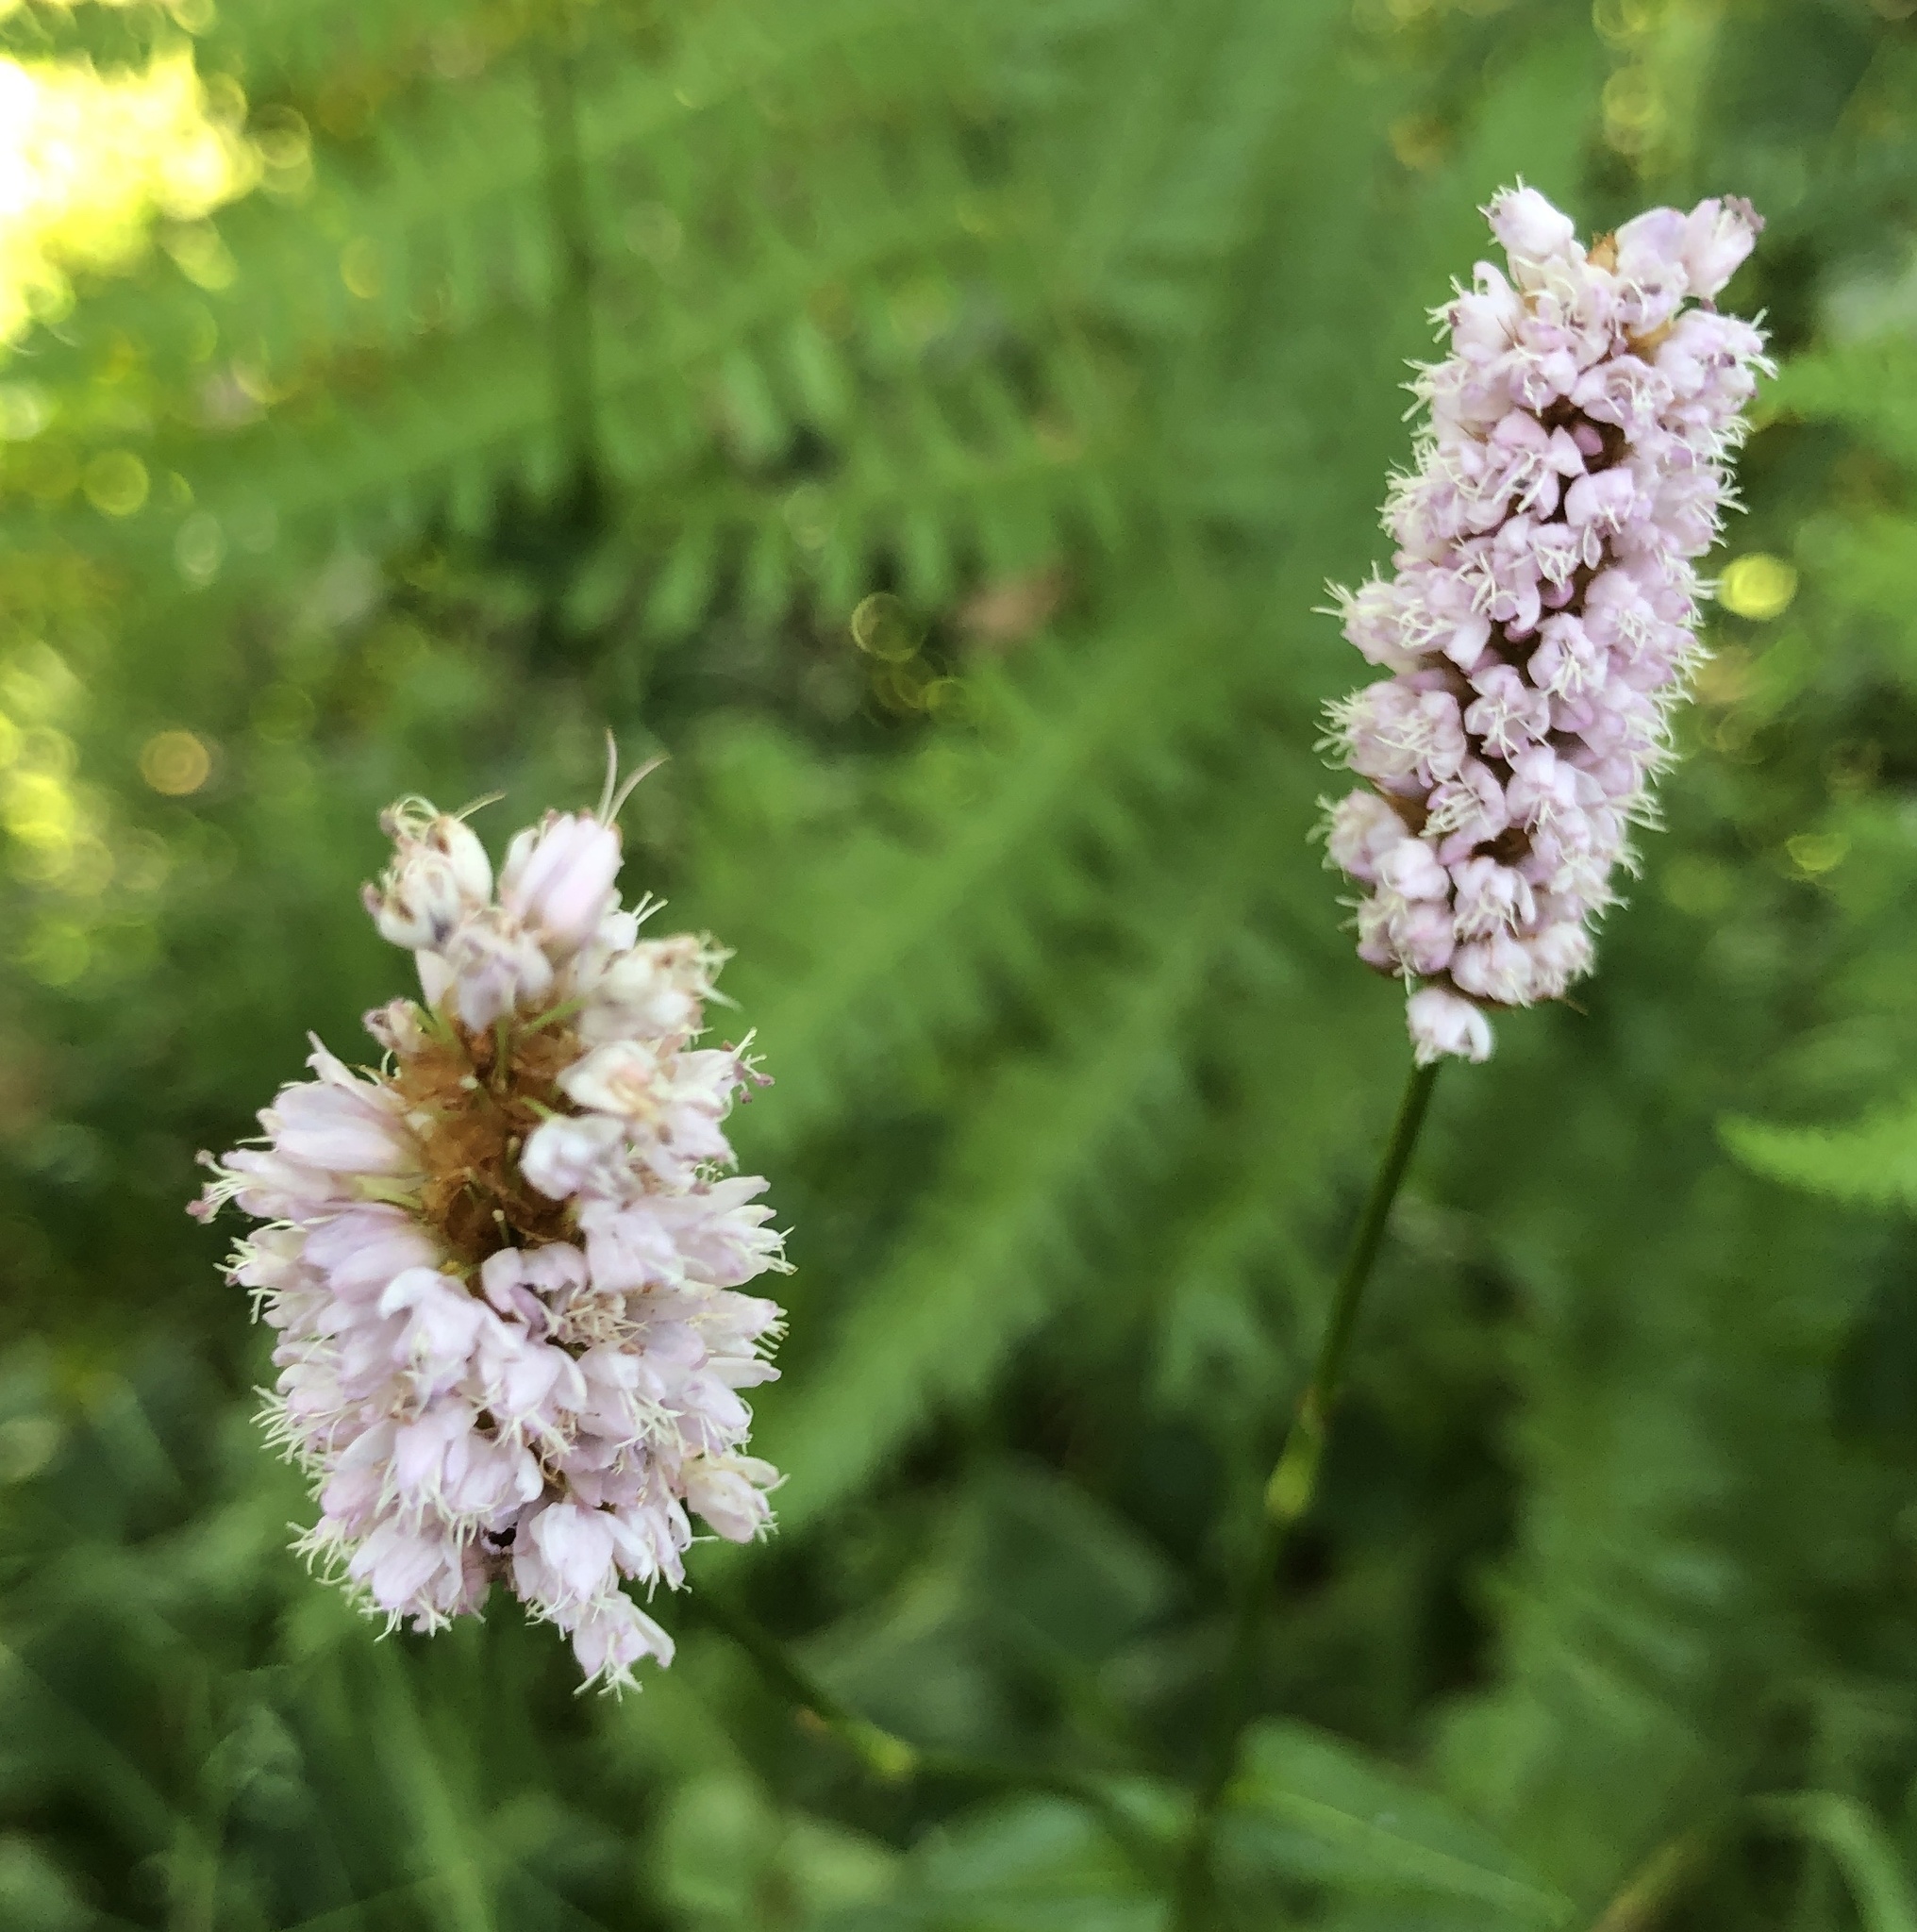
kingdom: Plantae
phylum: Tracheophyta
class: Magnoliopsida
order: Caryophyllales
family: Polygonaceae
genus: Bistorta
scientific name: Bistorta officinalis
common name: Common bistort
